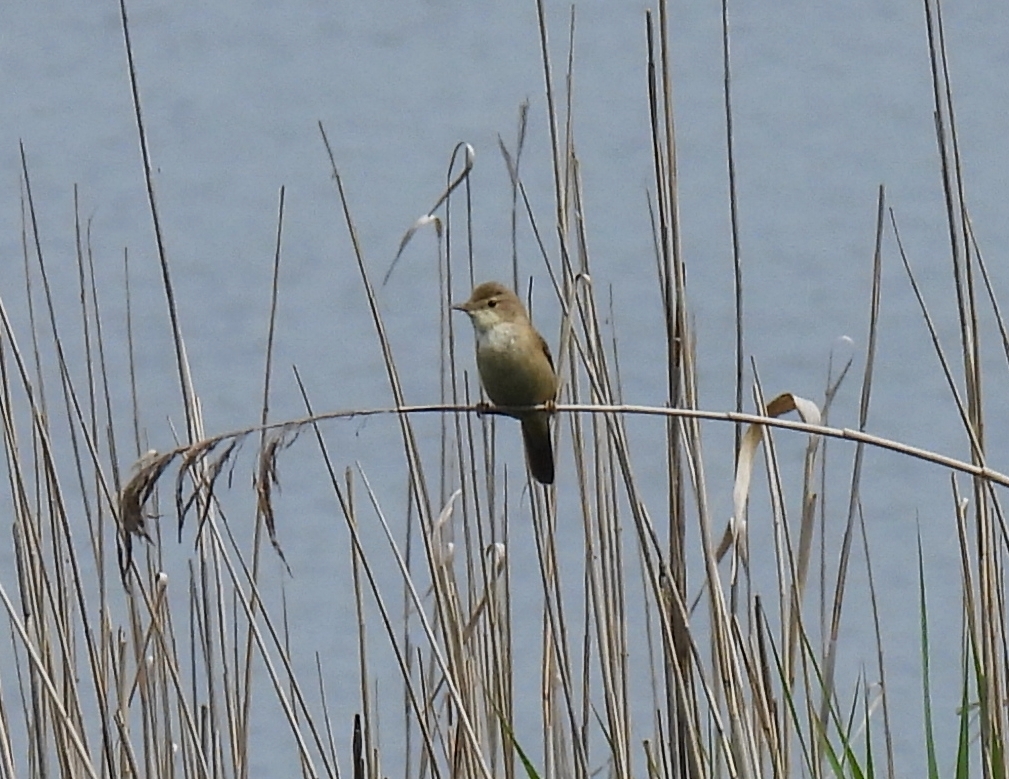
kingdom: Animalia
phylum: Chordata
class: Aves
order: Passeriformes
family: Acrocephalidae
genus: Acrocephalus
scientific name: Acrocephalus scirpaceus
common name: Eurasian reed warbler
